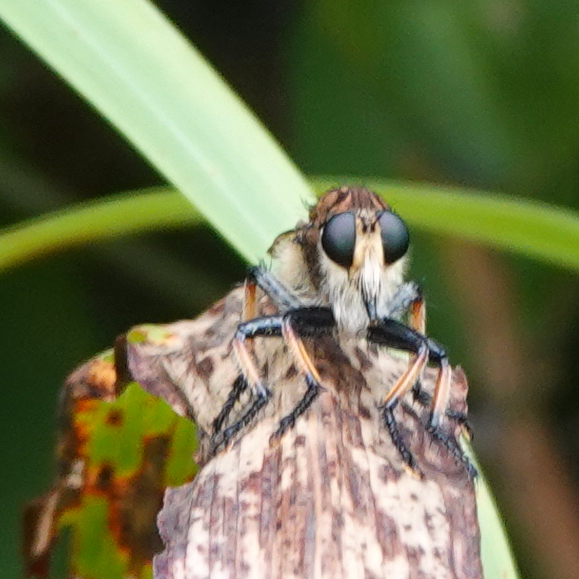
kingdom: Animalia
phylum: Arthropoda
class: Insecta
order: Diptera
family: Asilidae
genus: Promachus
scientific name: Promachus rufipes
